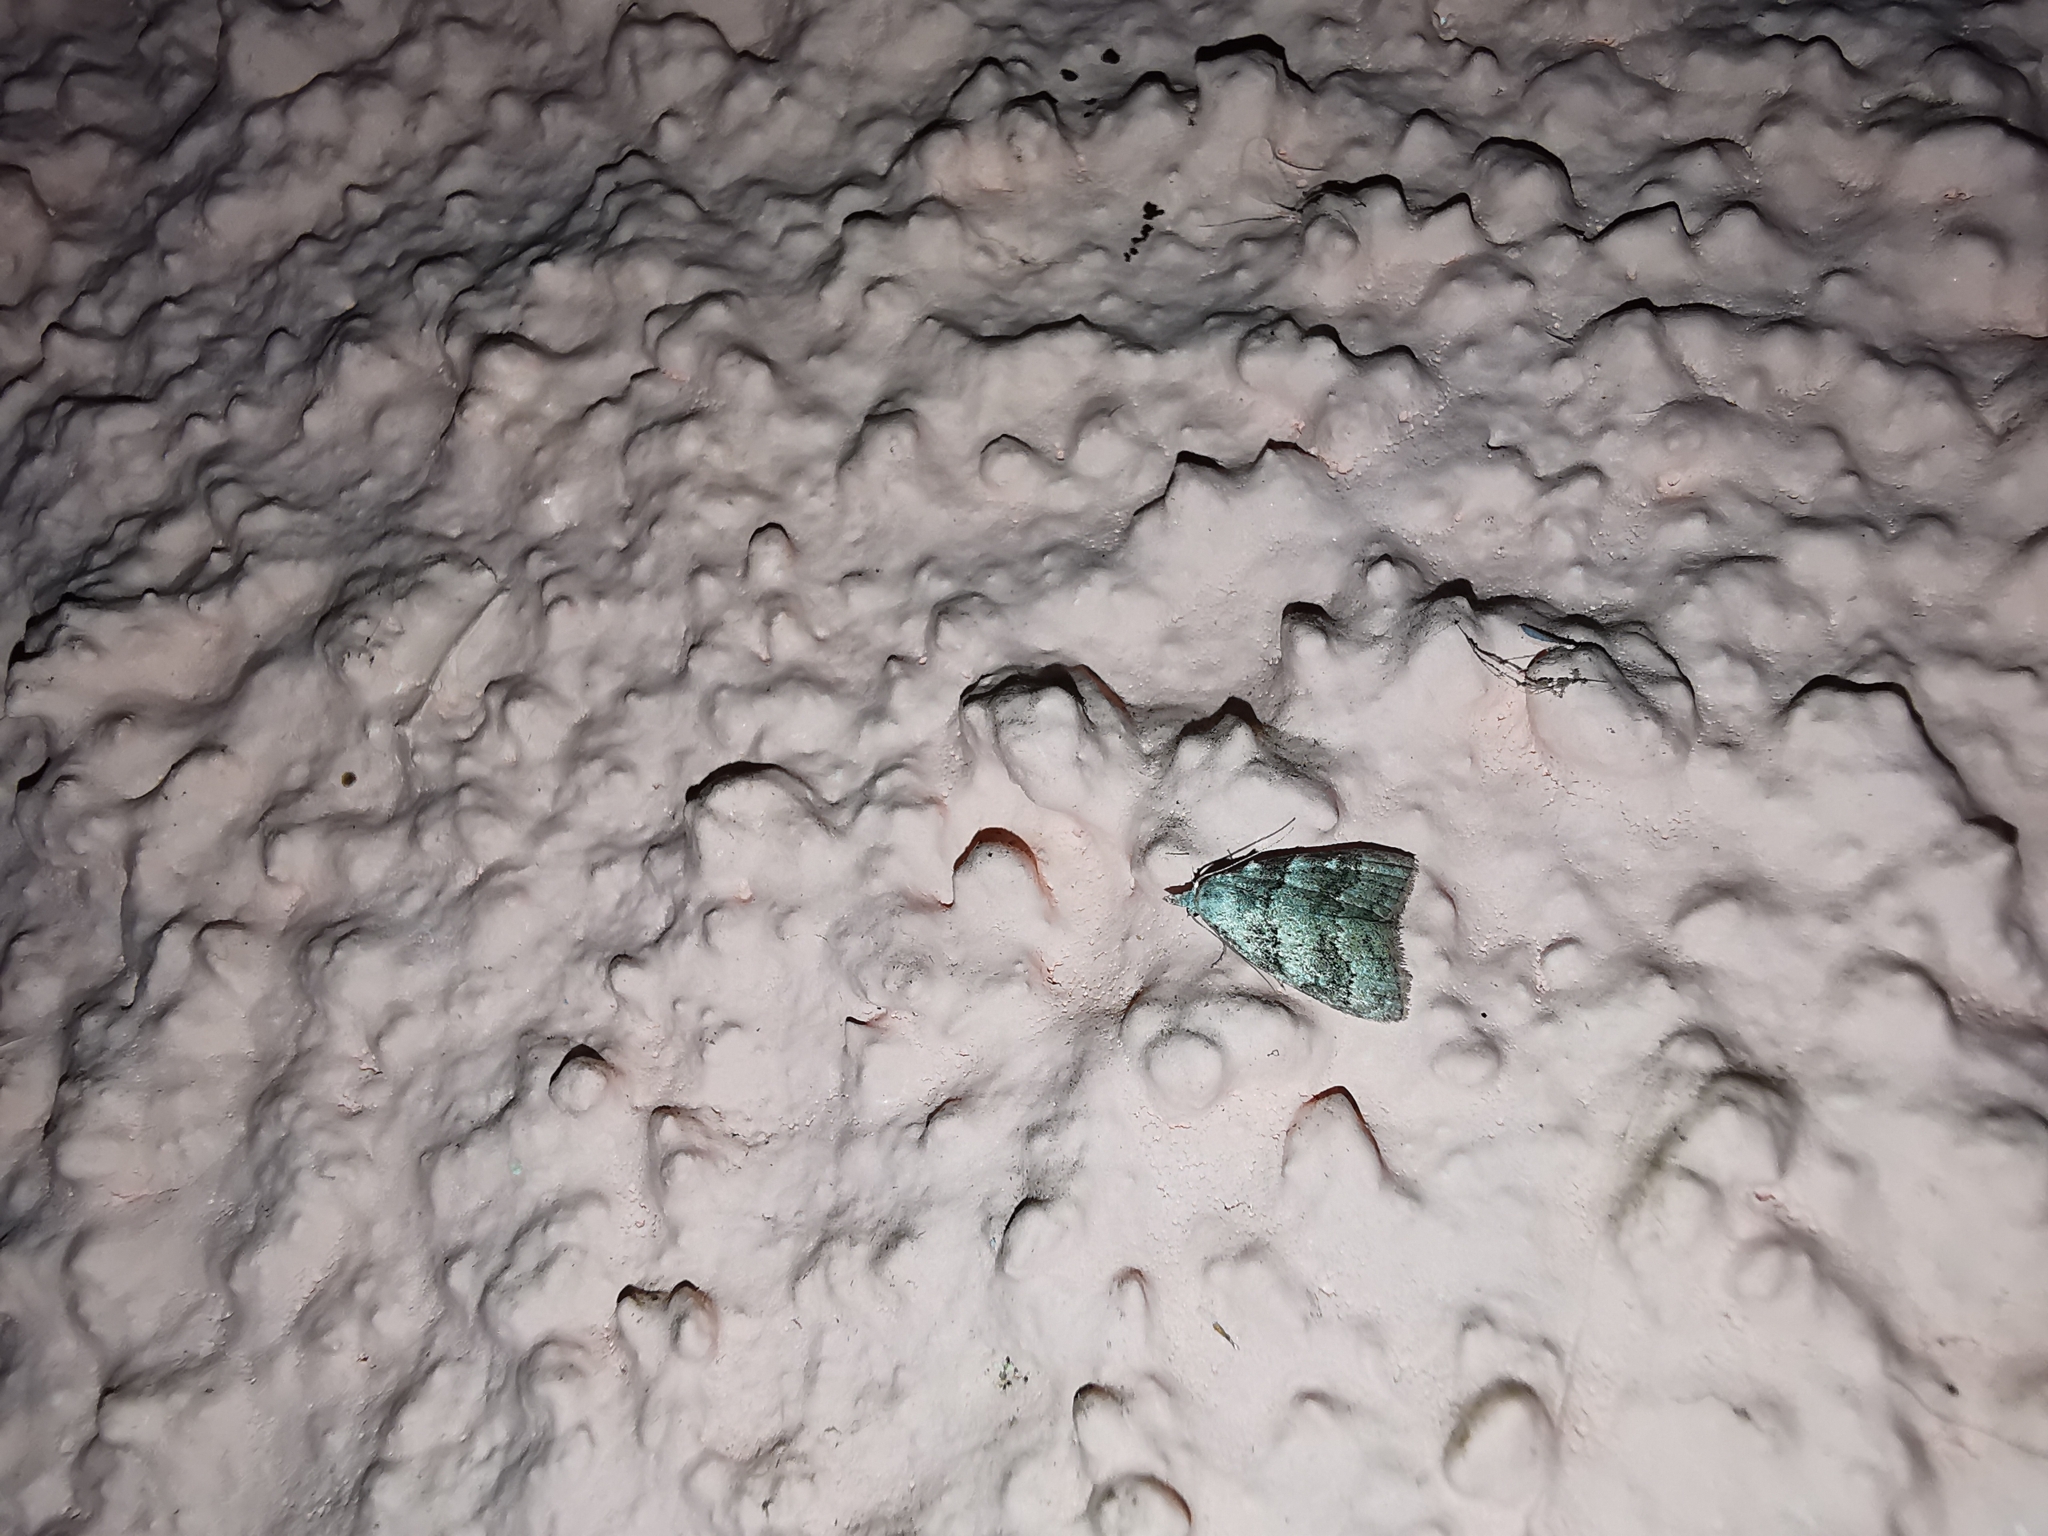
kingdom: Animalia
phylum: Arthropoda
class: Insecta
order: Lepidoptera
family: Nolidae
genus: Nola
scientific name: Nola harouni
